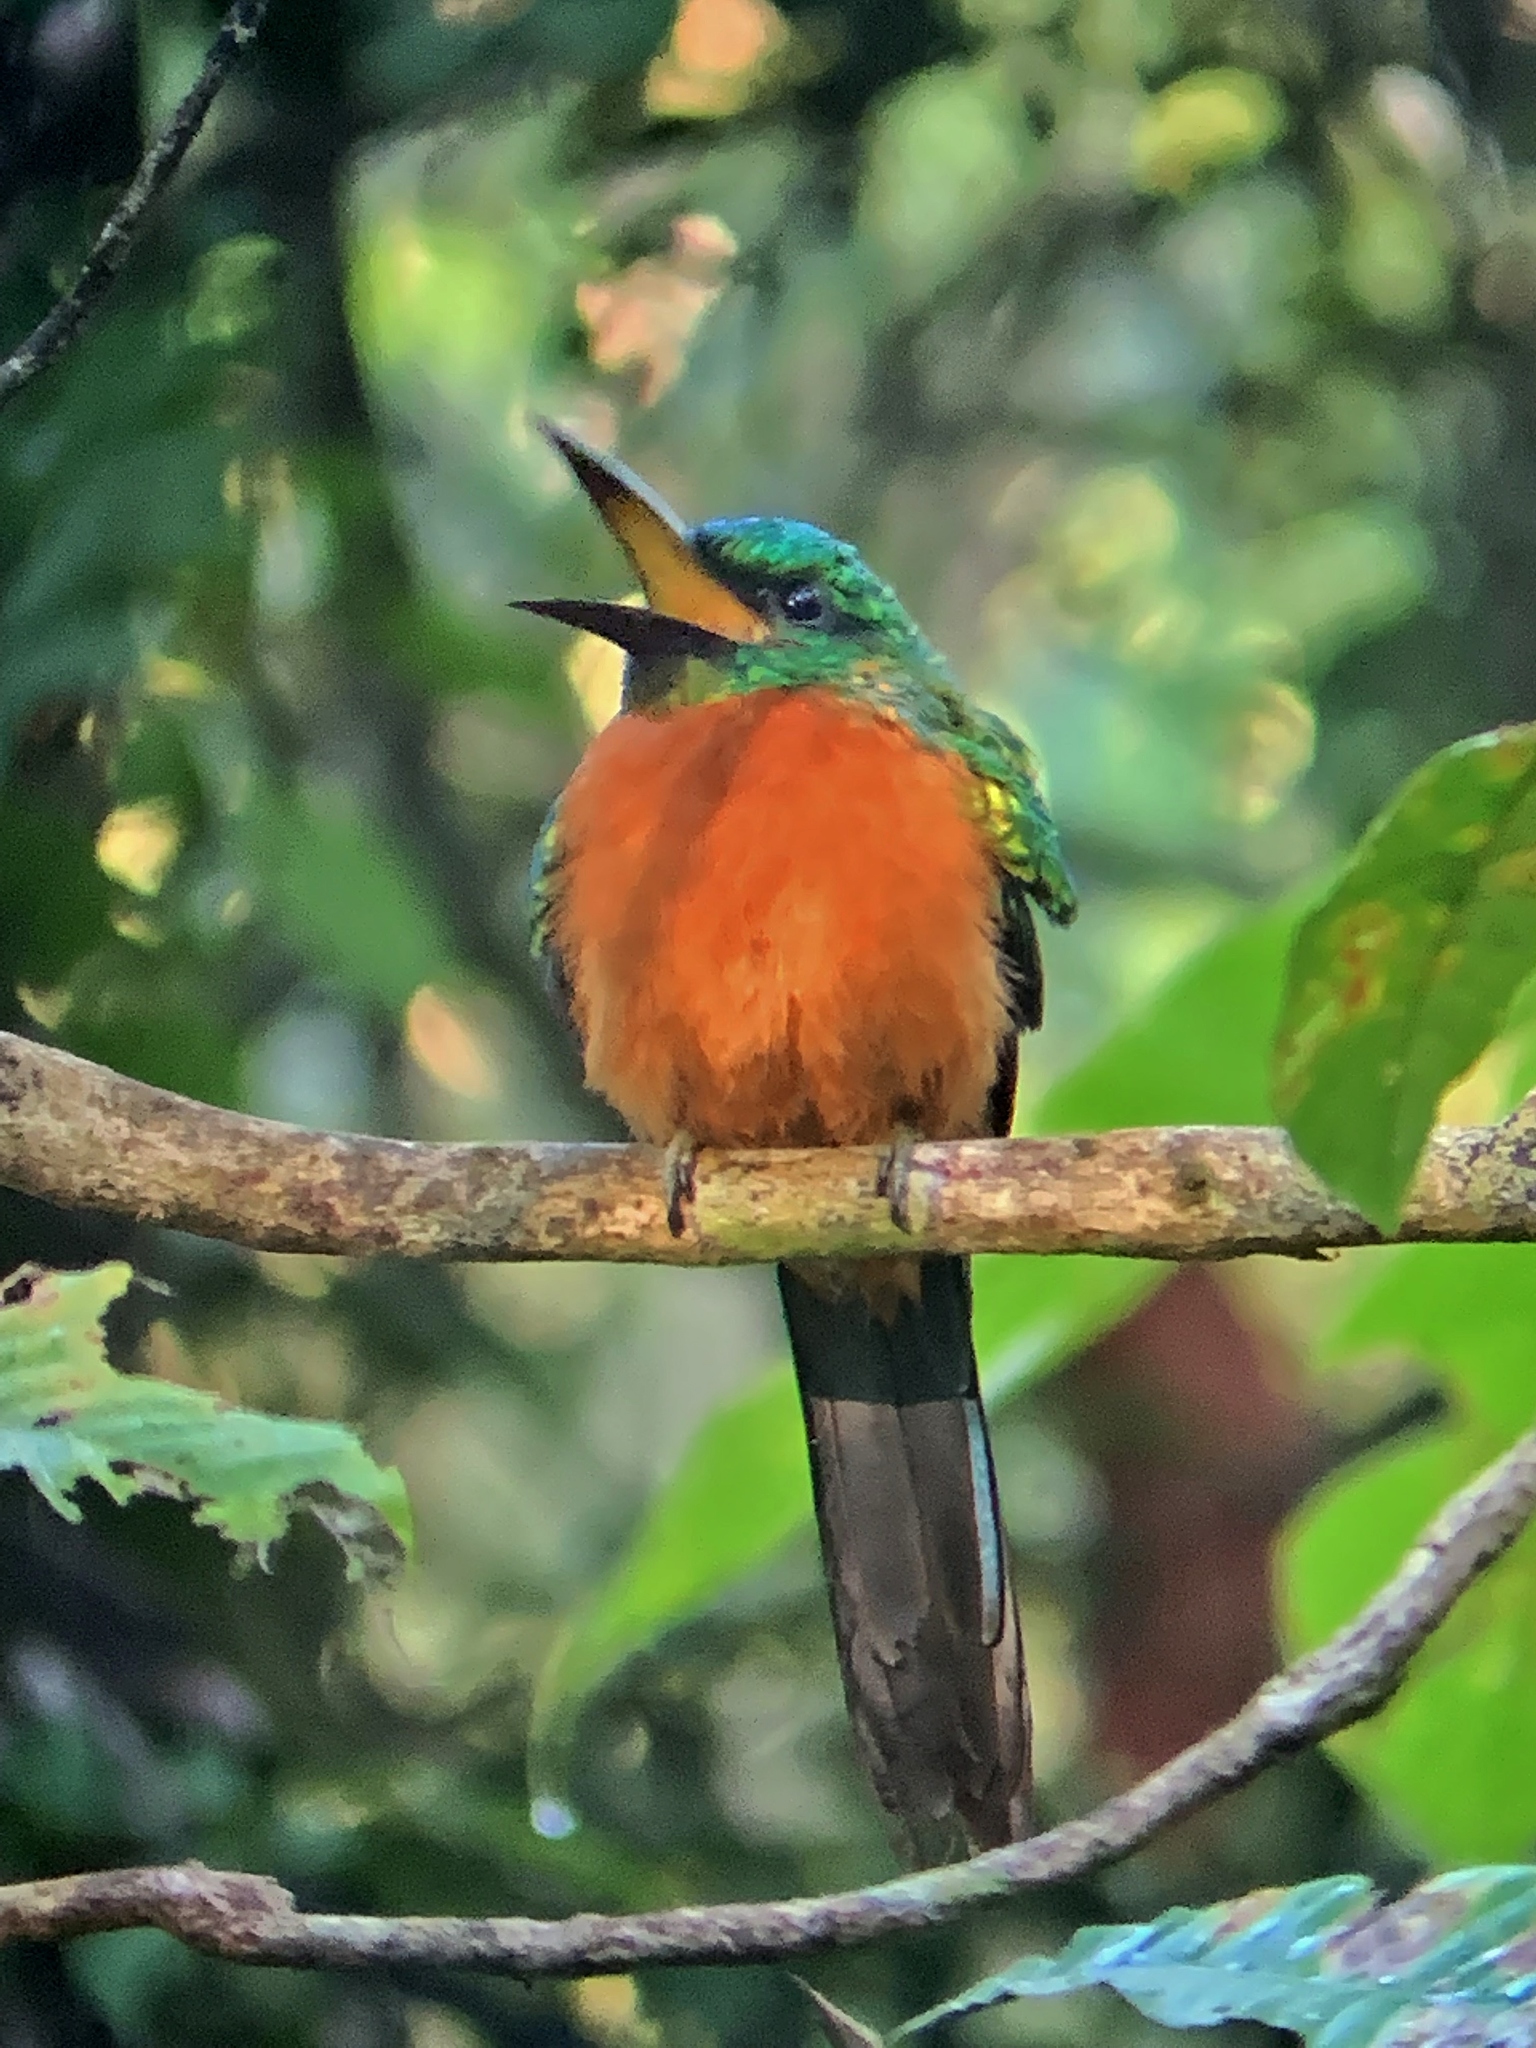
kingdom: Animalia
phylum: Chordata
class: Aves
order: Piciformes
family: Galbulidae
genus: Jacamerops
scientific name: Jacamerops aureus
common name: Great jacamar
